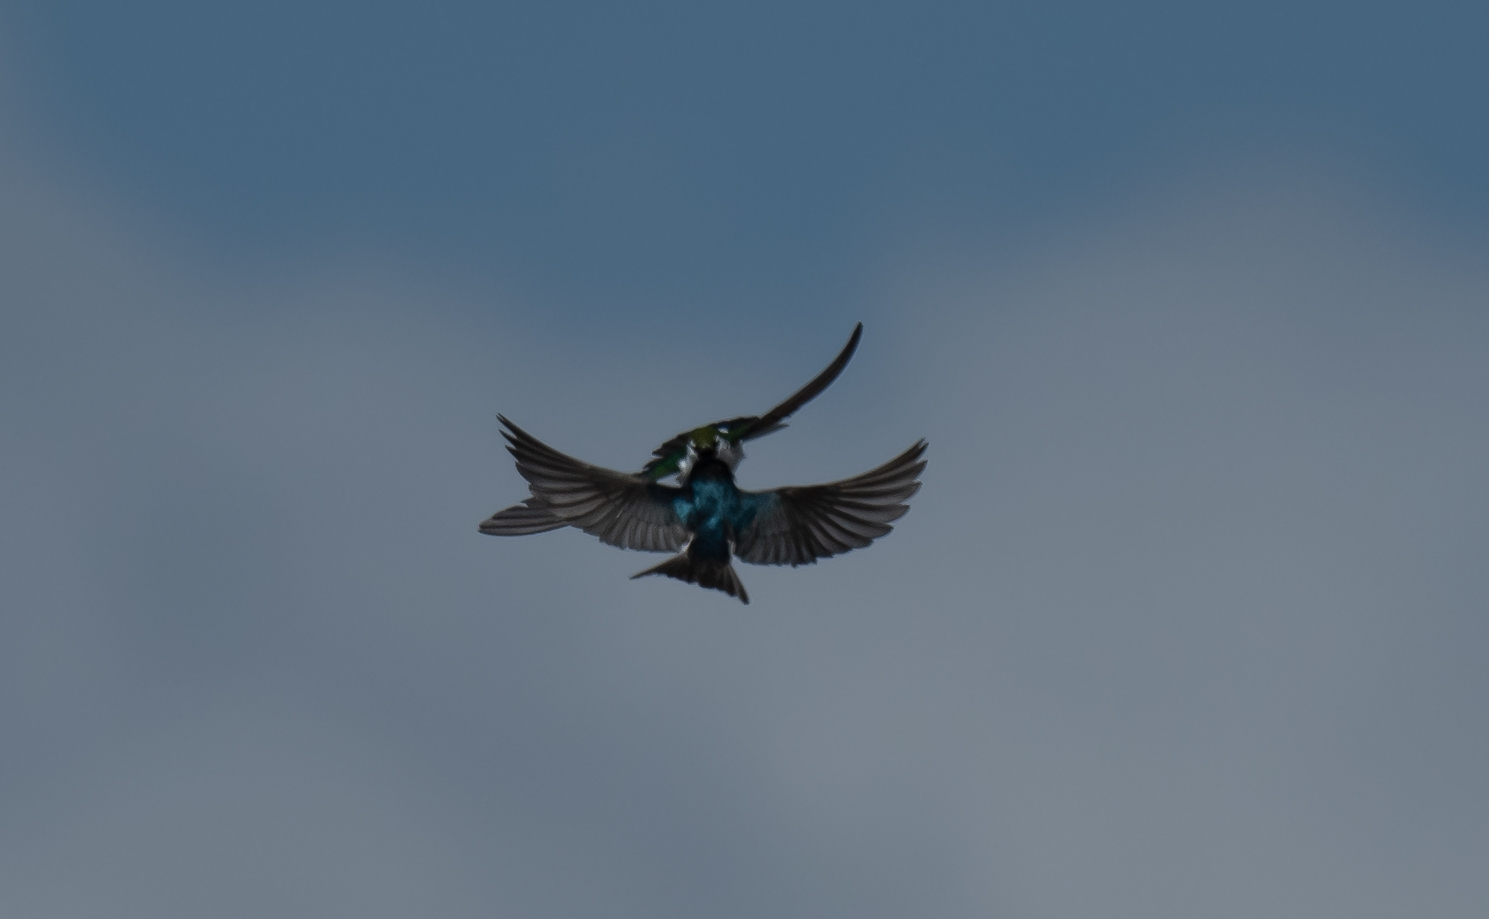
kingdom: Animalia
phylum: Chordata
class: Aves
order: Passeriformes
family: Hirundinidae
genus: Tachycineta
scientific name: Tachycineta thalassina
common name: Violet-green swallow
